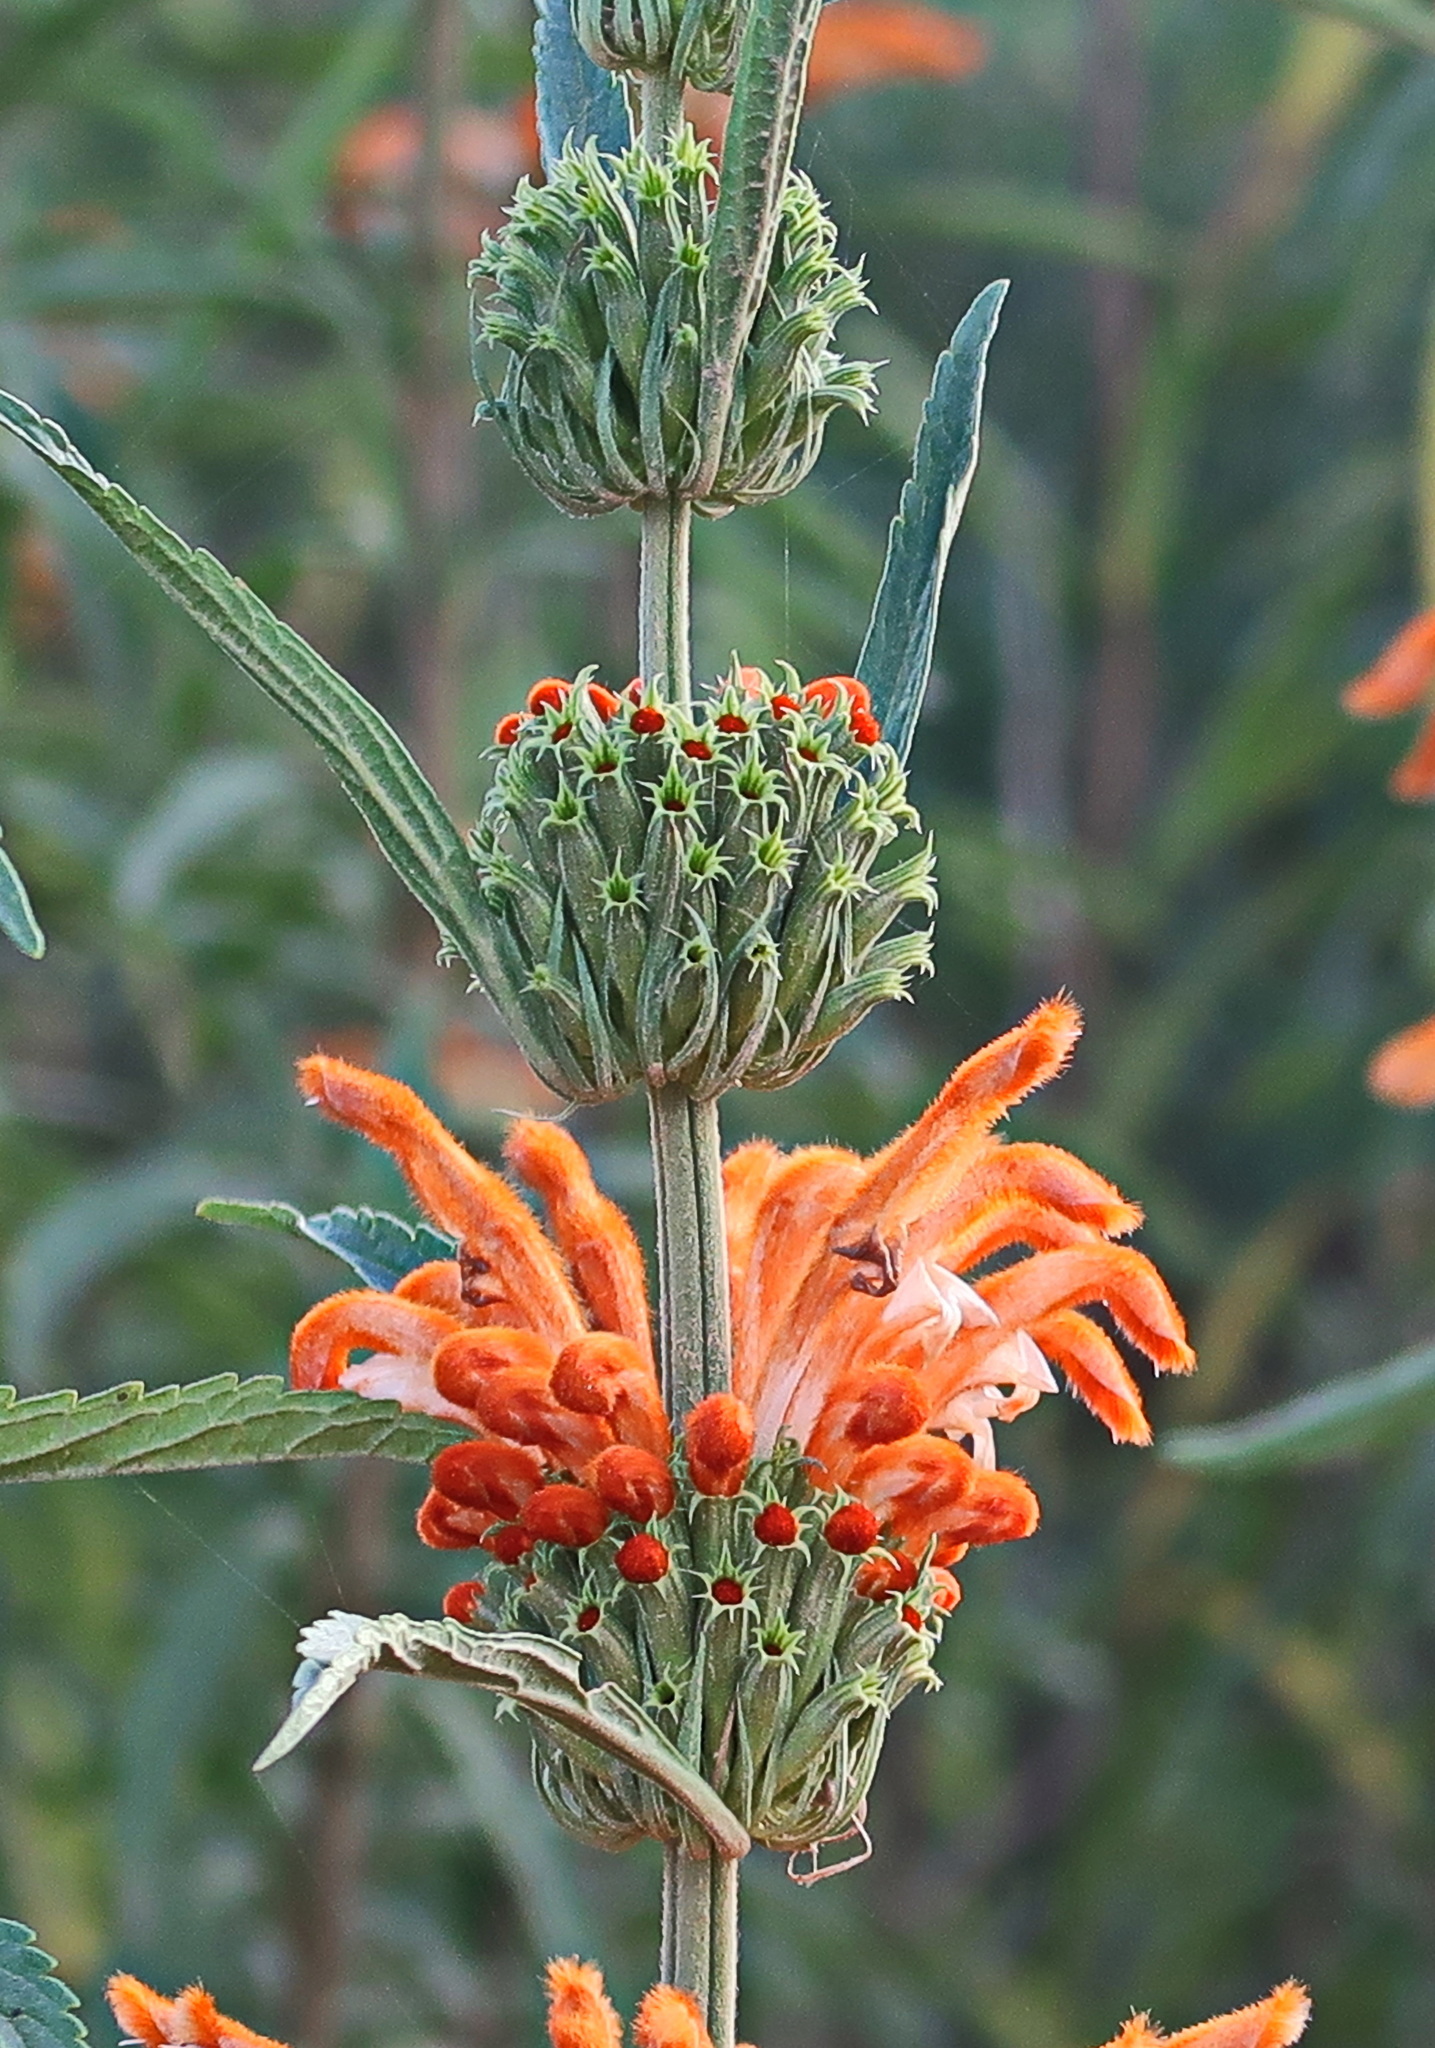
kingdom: Plantae
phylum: Tracheophyta
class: Magnoliopsida
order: Lamiales
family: Lamiaceae
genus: Leonotis
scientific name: Leonotis leonurus
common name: Lion's ear
